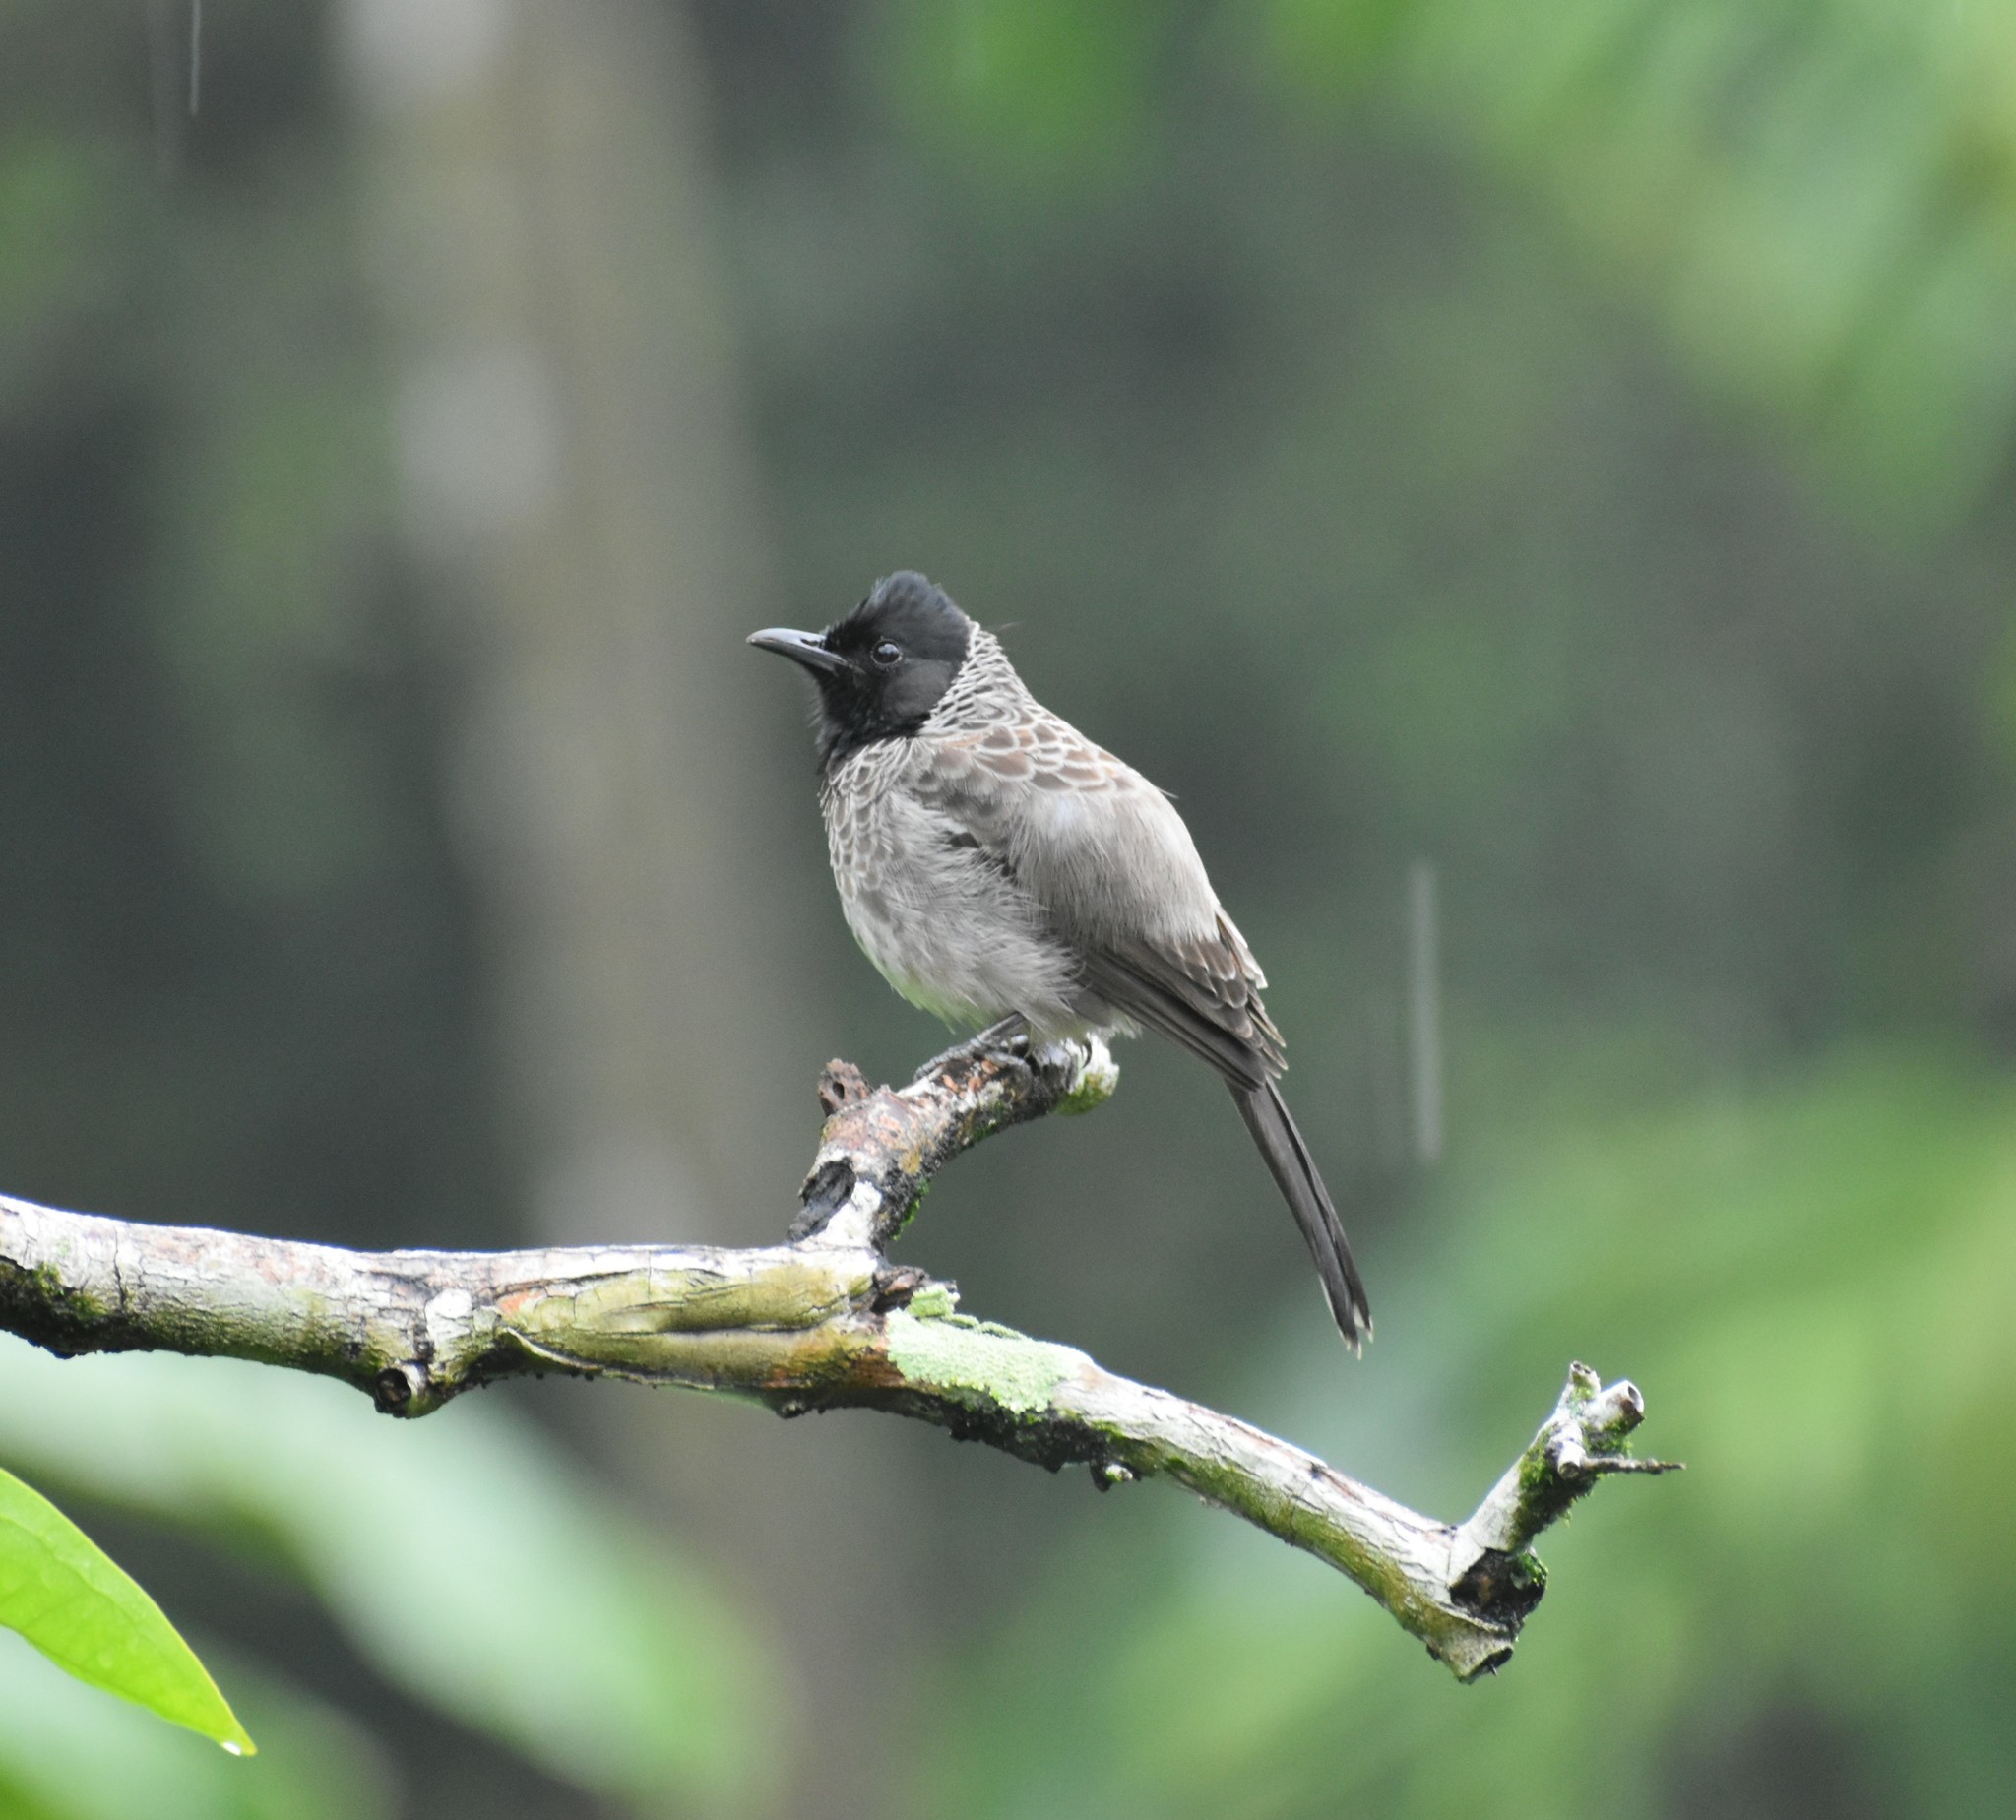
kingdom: Animalia
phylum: Chordata
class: Aves
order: Passeriformes
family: Pycnonotidae
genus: Pycnonotus
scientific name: Pycnonotus cafer
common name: Red-vented bulbul
